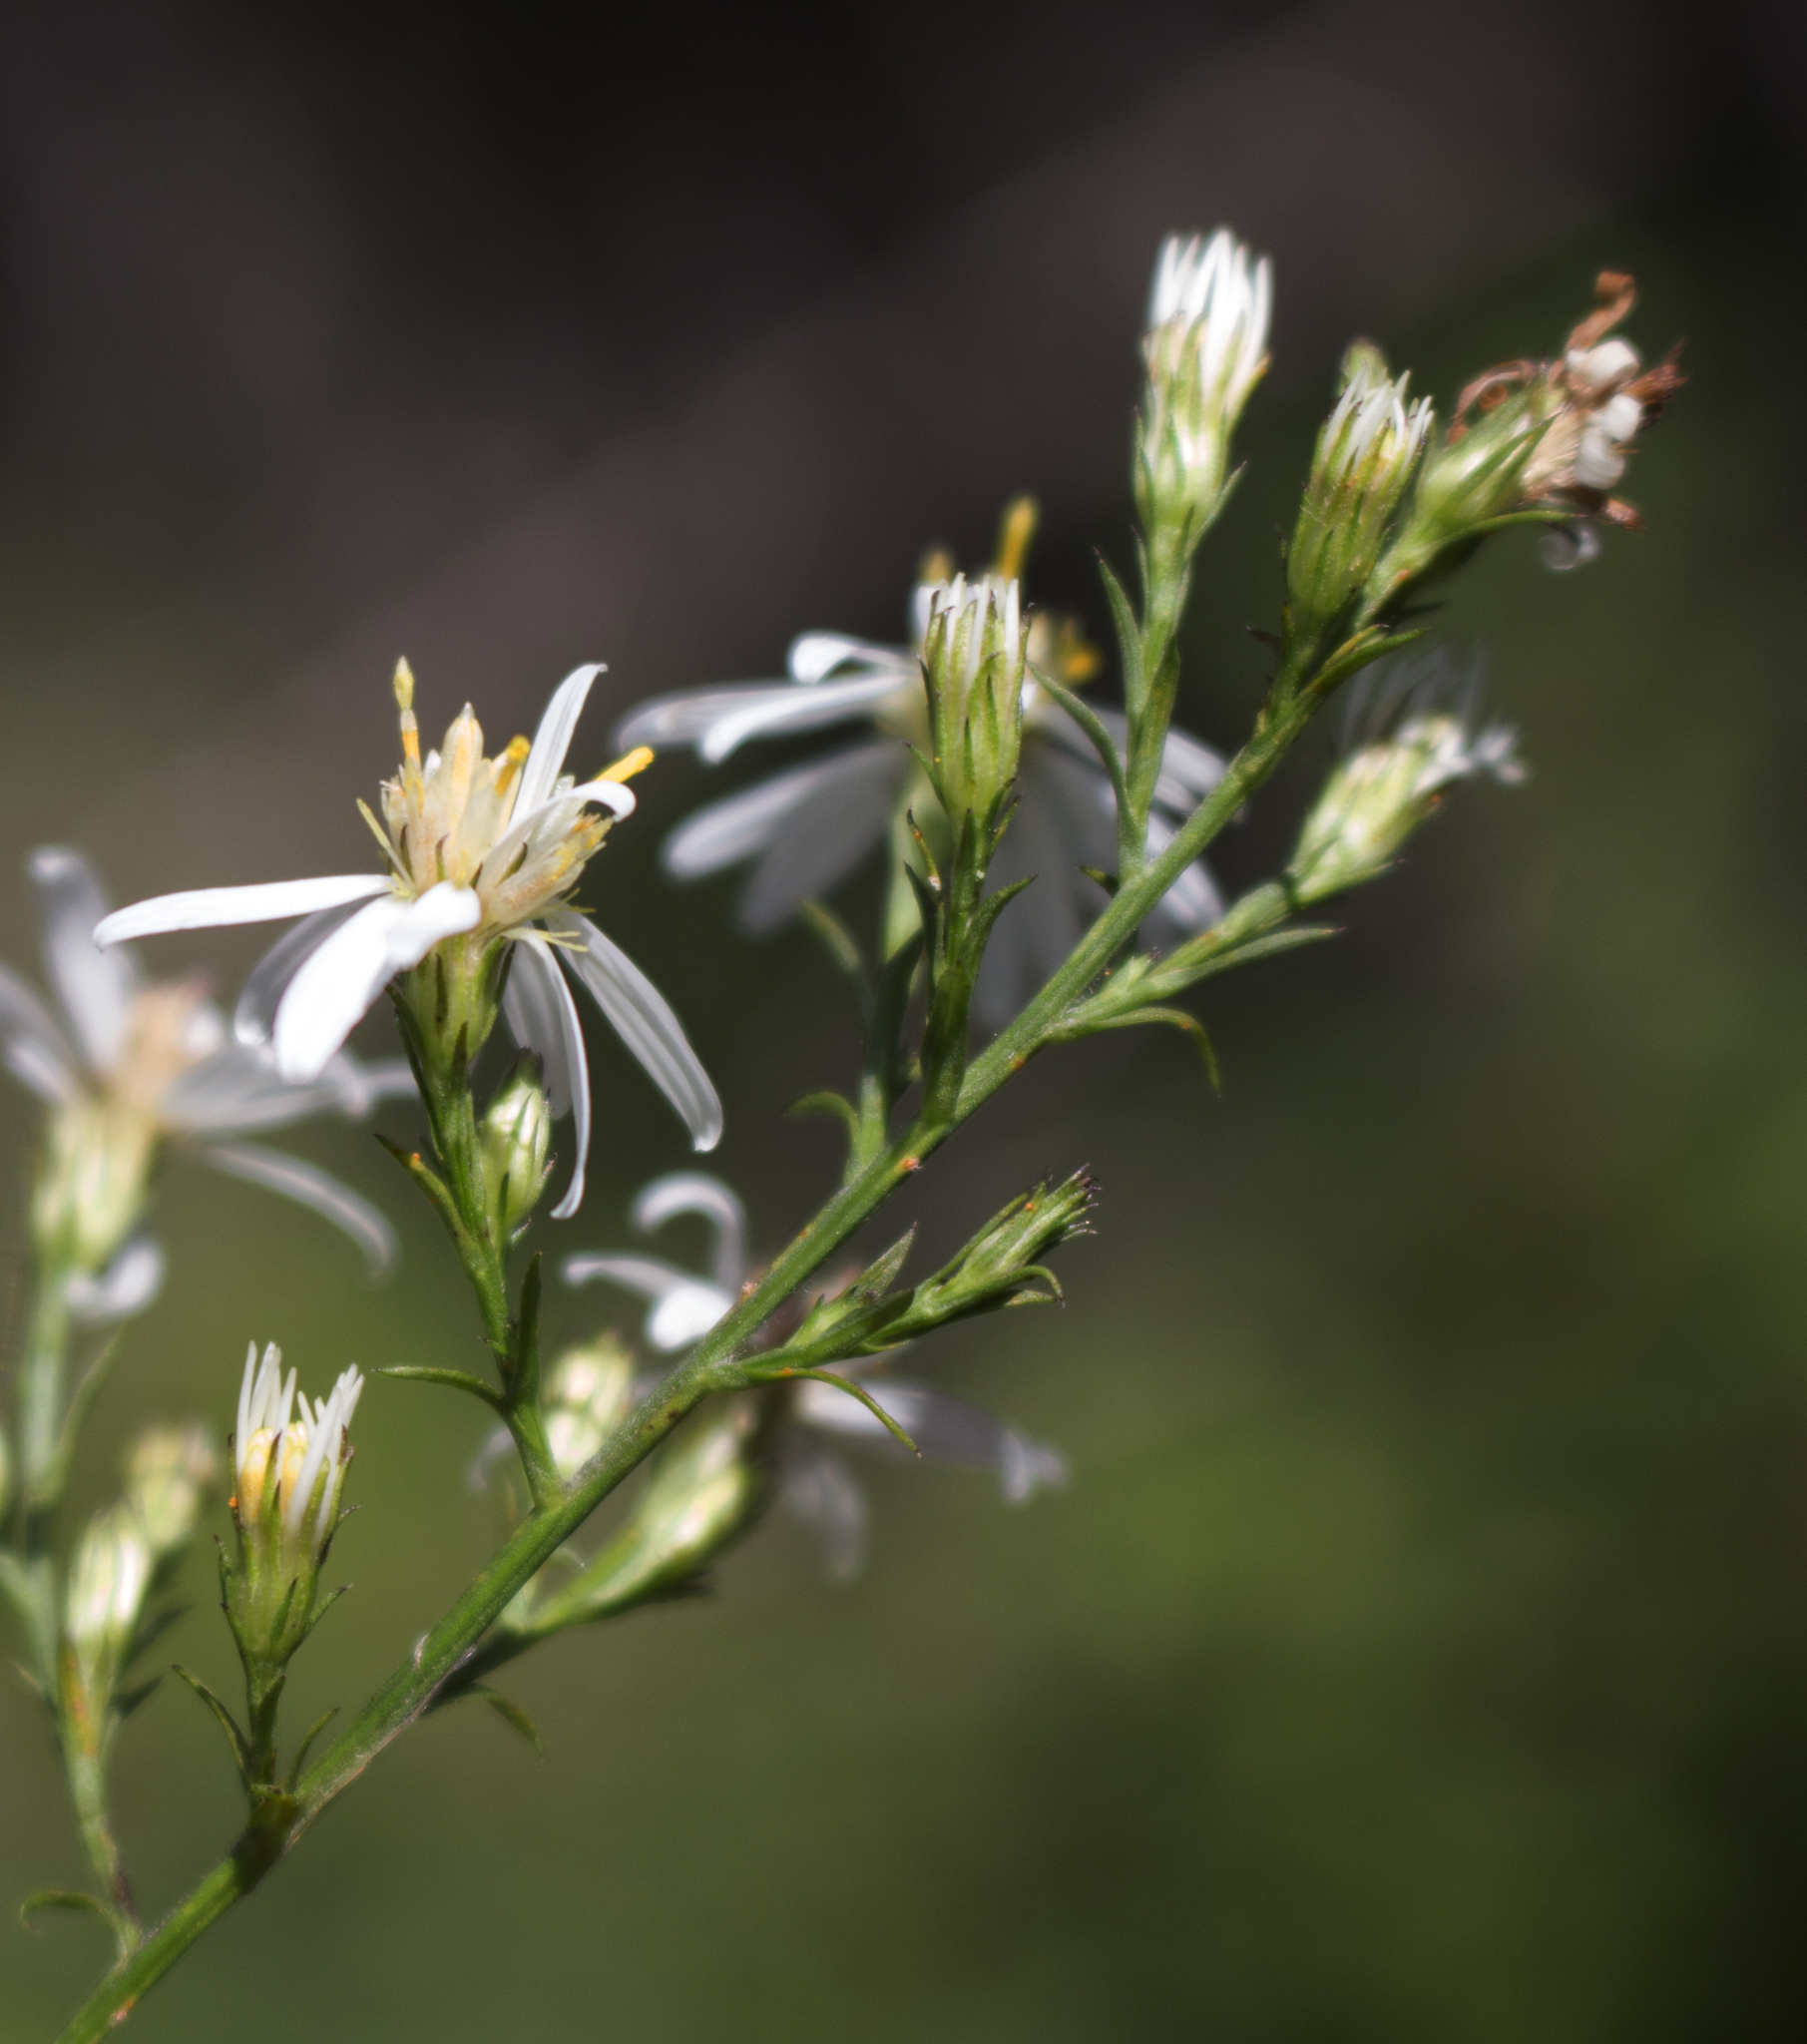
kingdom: Plantae
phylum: Tracheophyta
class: Magnoliopsida
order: Asterales
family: Asteraceae
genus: Symphyotrichum
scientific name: Symphyotrichum urophyllum
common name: Arrow-leaved aster
